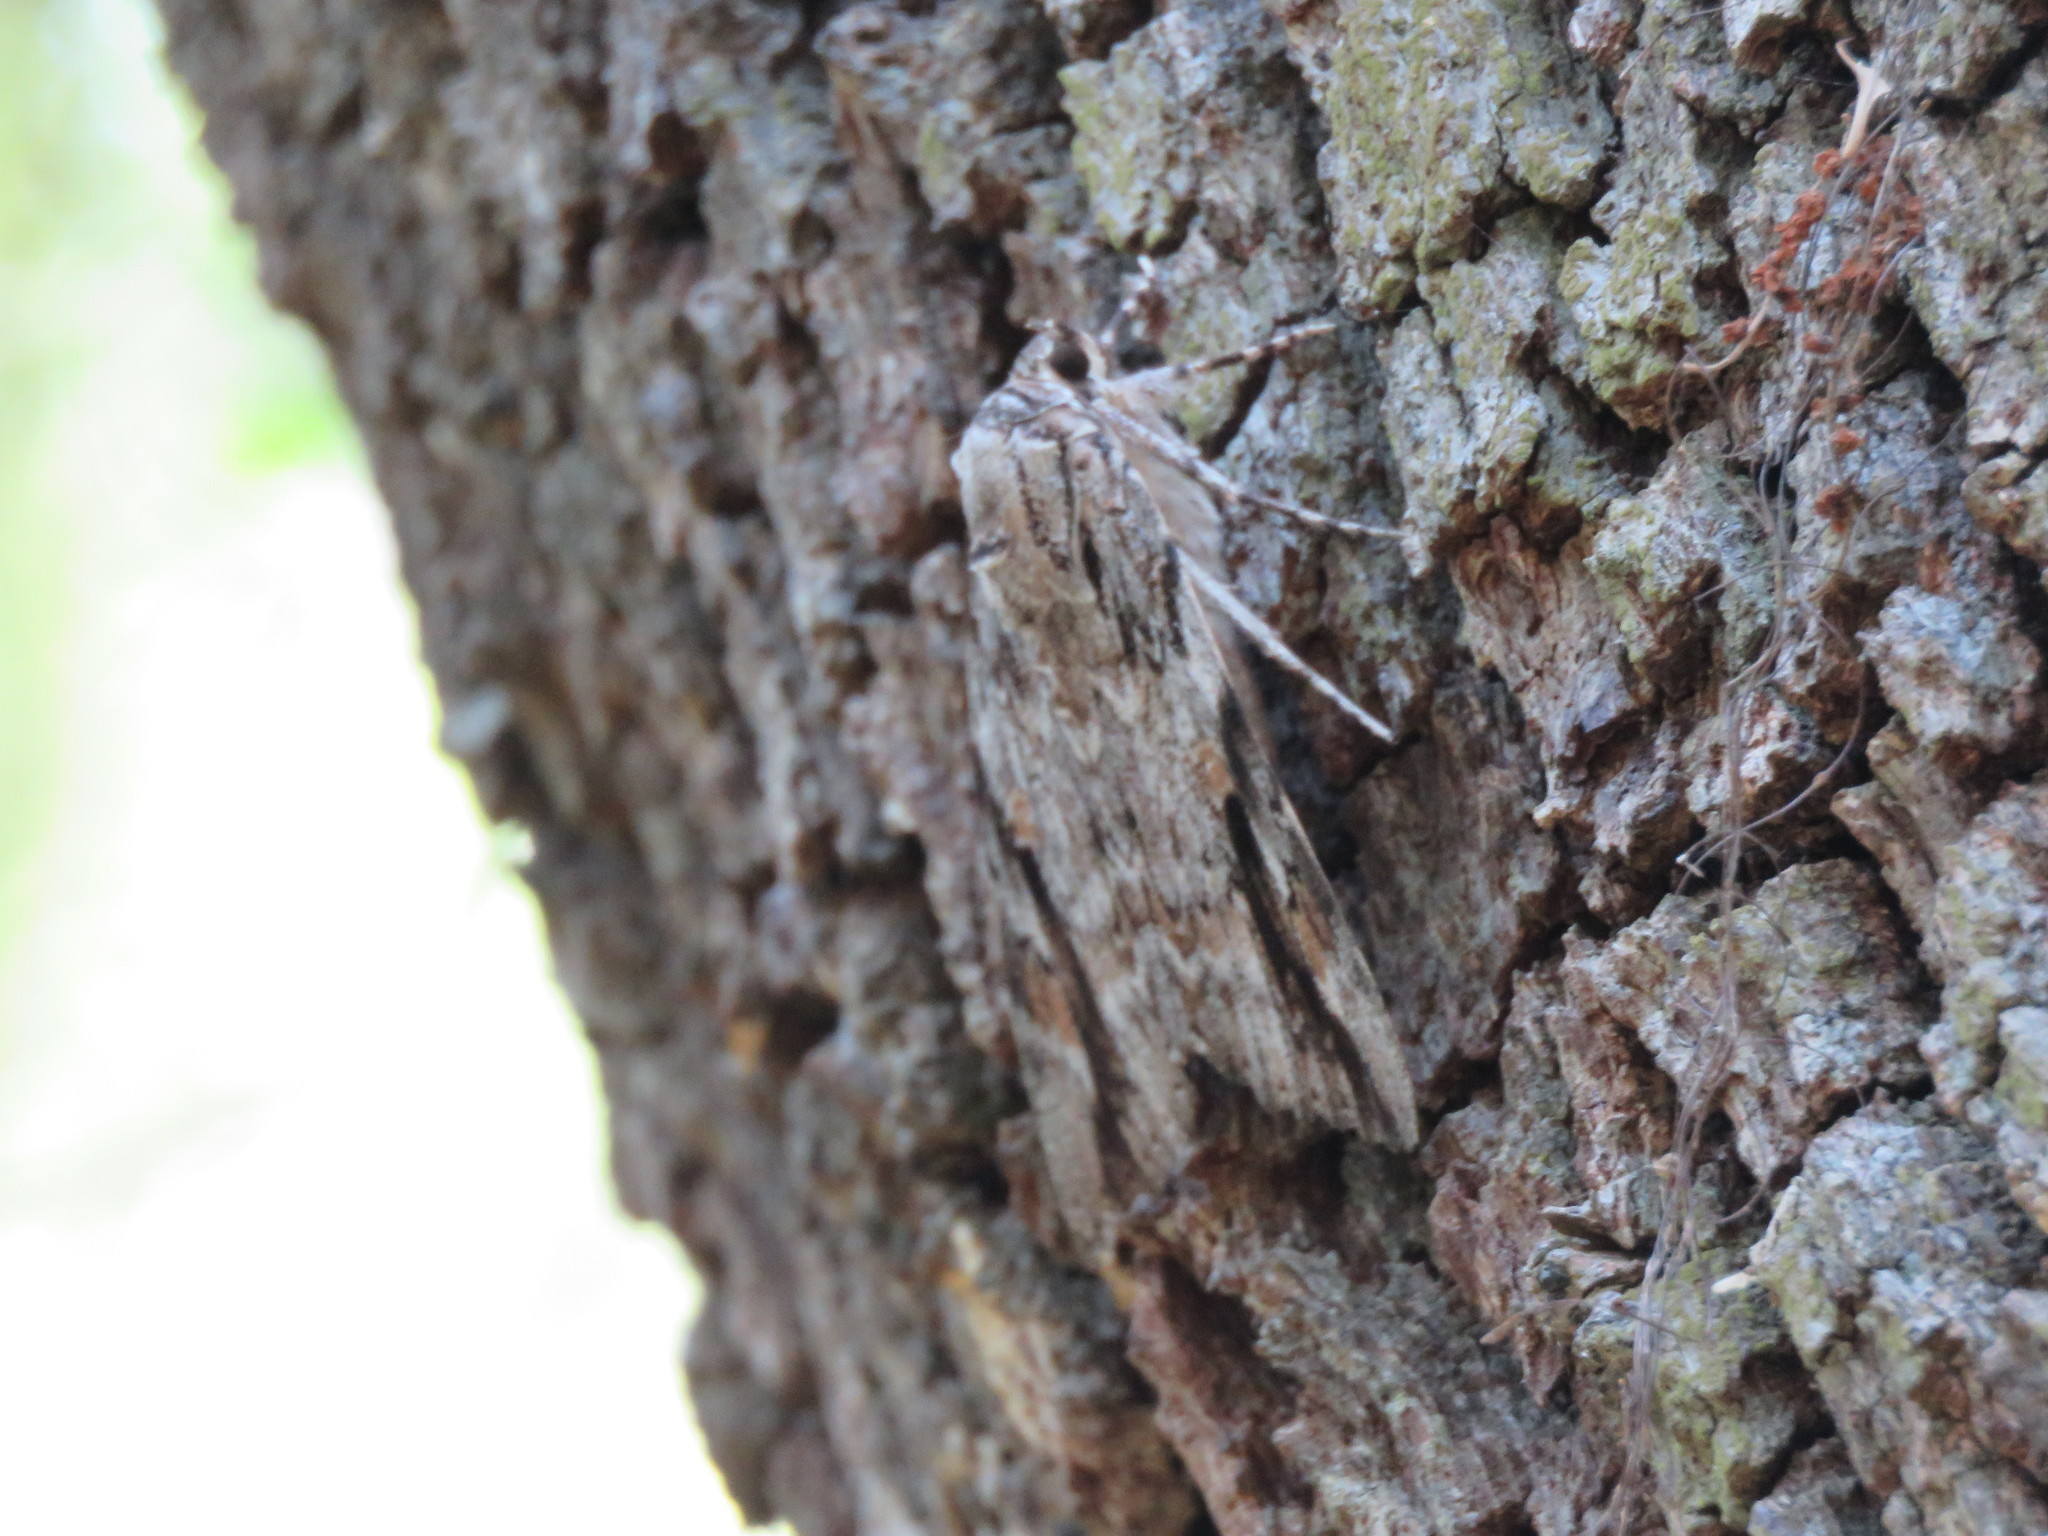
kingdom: Animalia
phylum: Arthropoda
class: Insecta
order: Lepidoptera
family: Erebidae
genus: Catocala
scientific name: Catocala maestosa
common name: Sad underwing
